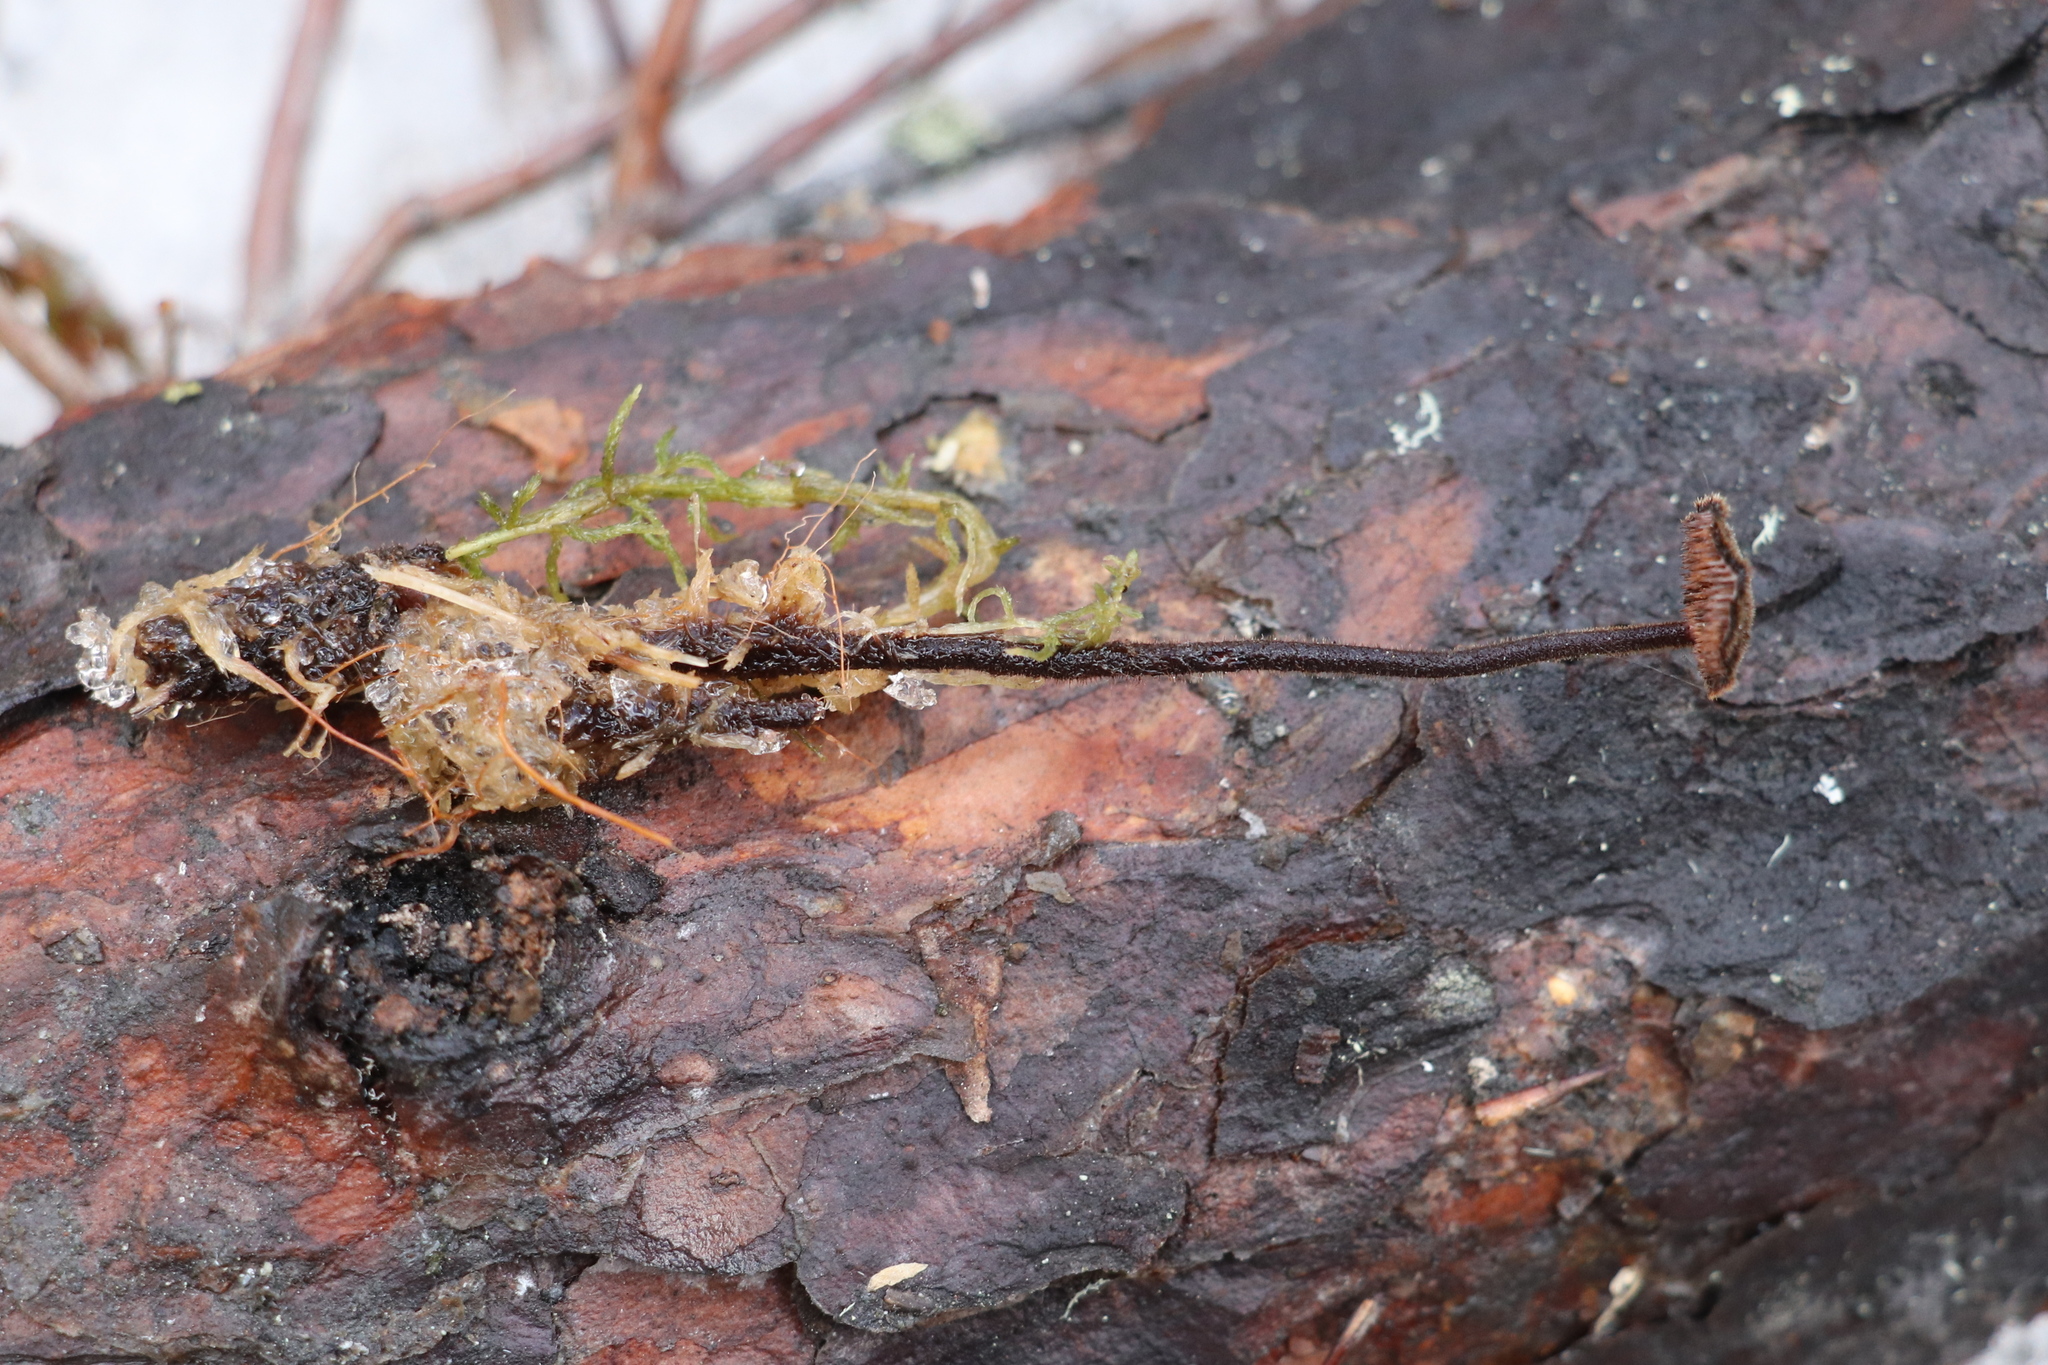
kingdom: Fungi
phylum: Basidiomycota
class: Agaricomycetes
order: Russulales
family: Auriscalpiaceae
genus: Auriscalpium
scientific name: Auriscalpium vulgare
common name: Earpick fungus
